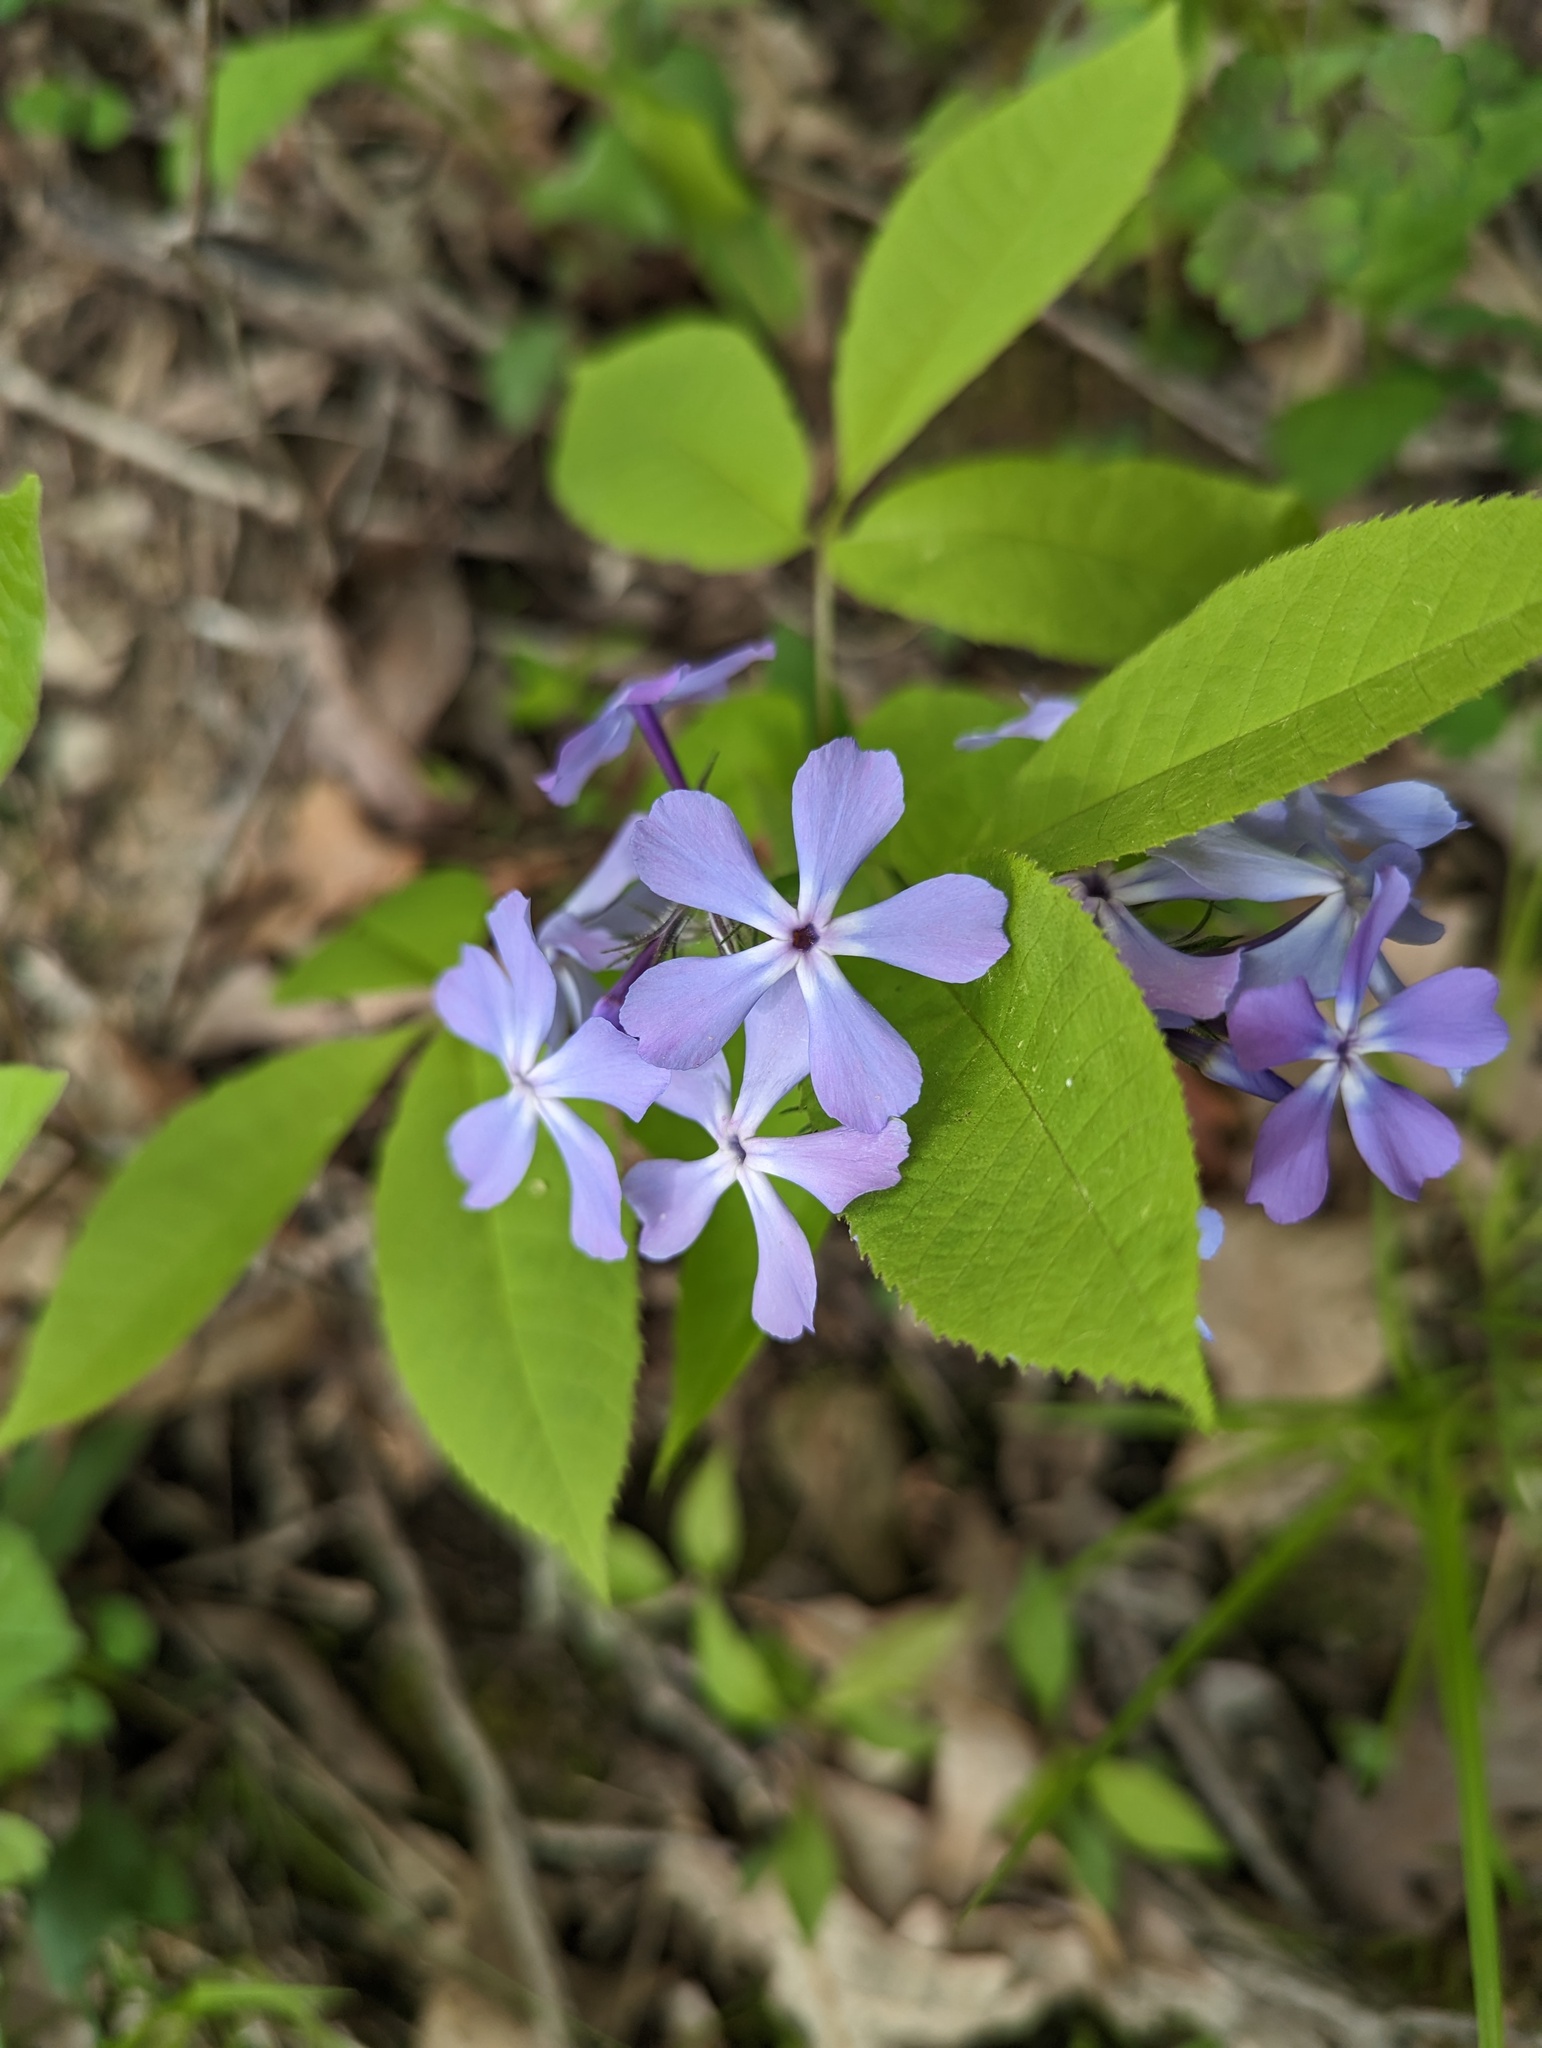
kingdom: Plantae
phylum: Tracheophyta
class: Magnoliopsida
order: Ericales
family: Polemoniaceae
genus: Phlox
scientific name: Phlox divaricata
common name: Blue phlox
